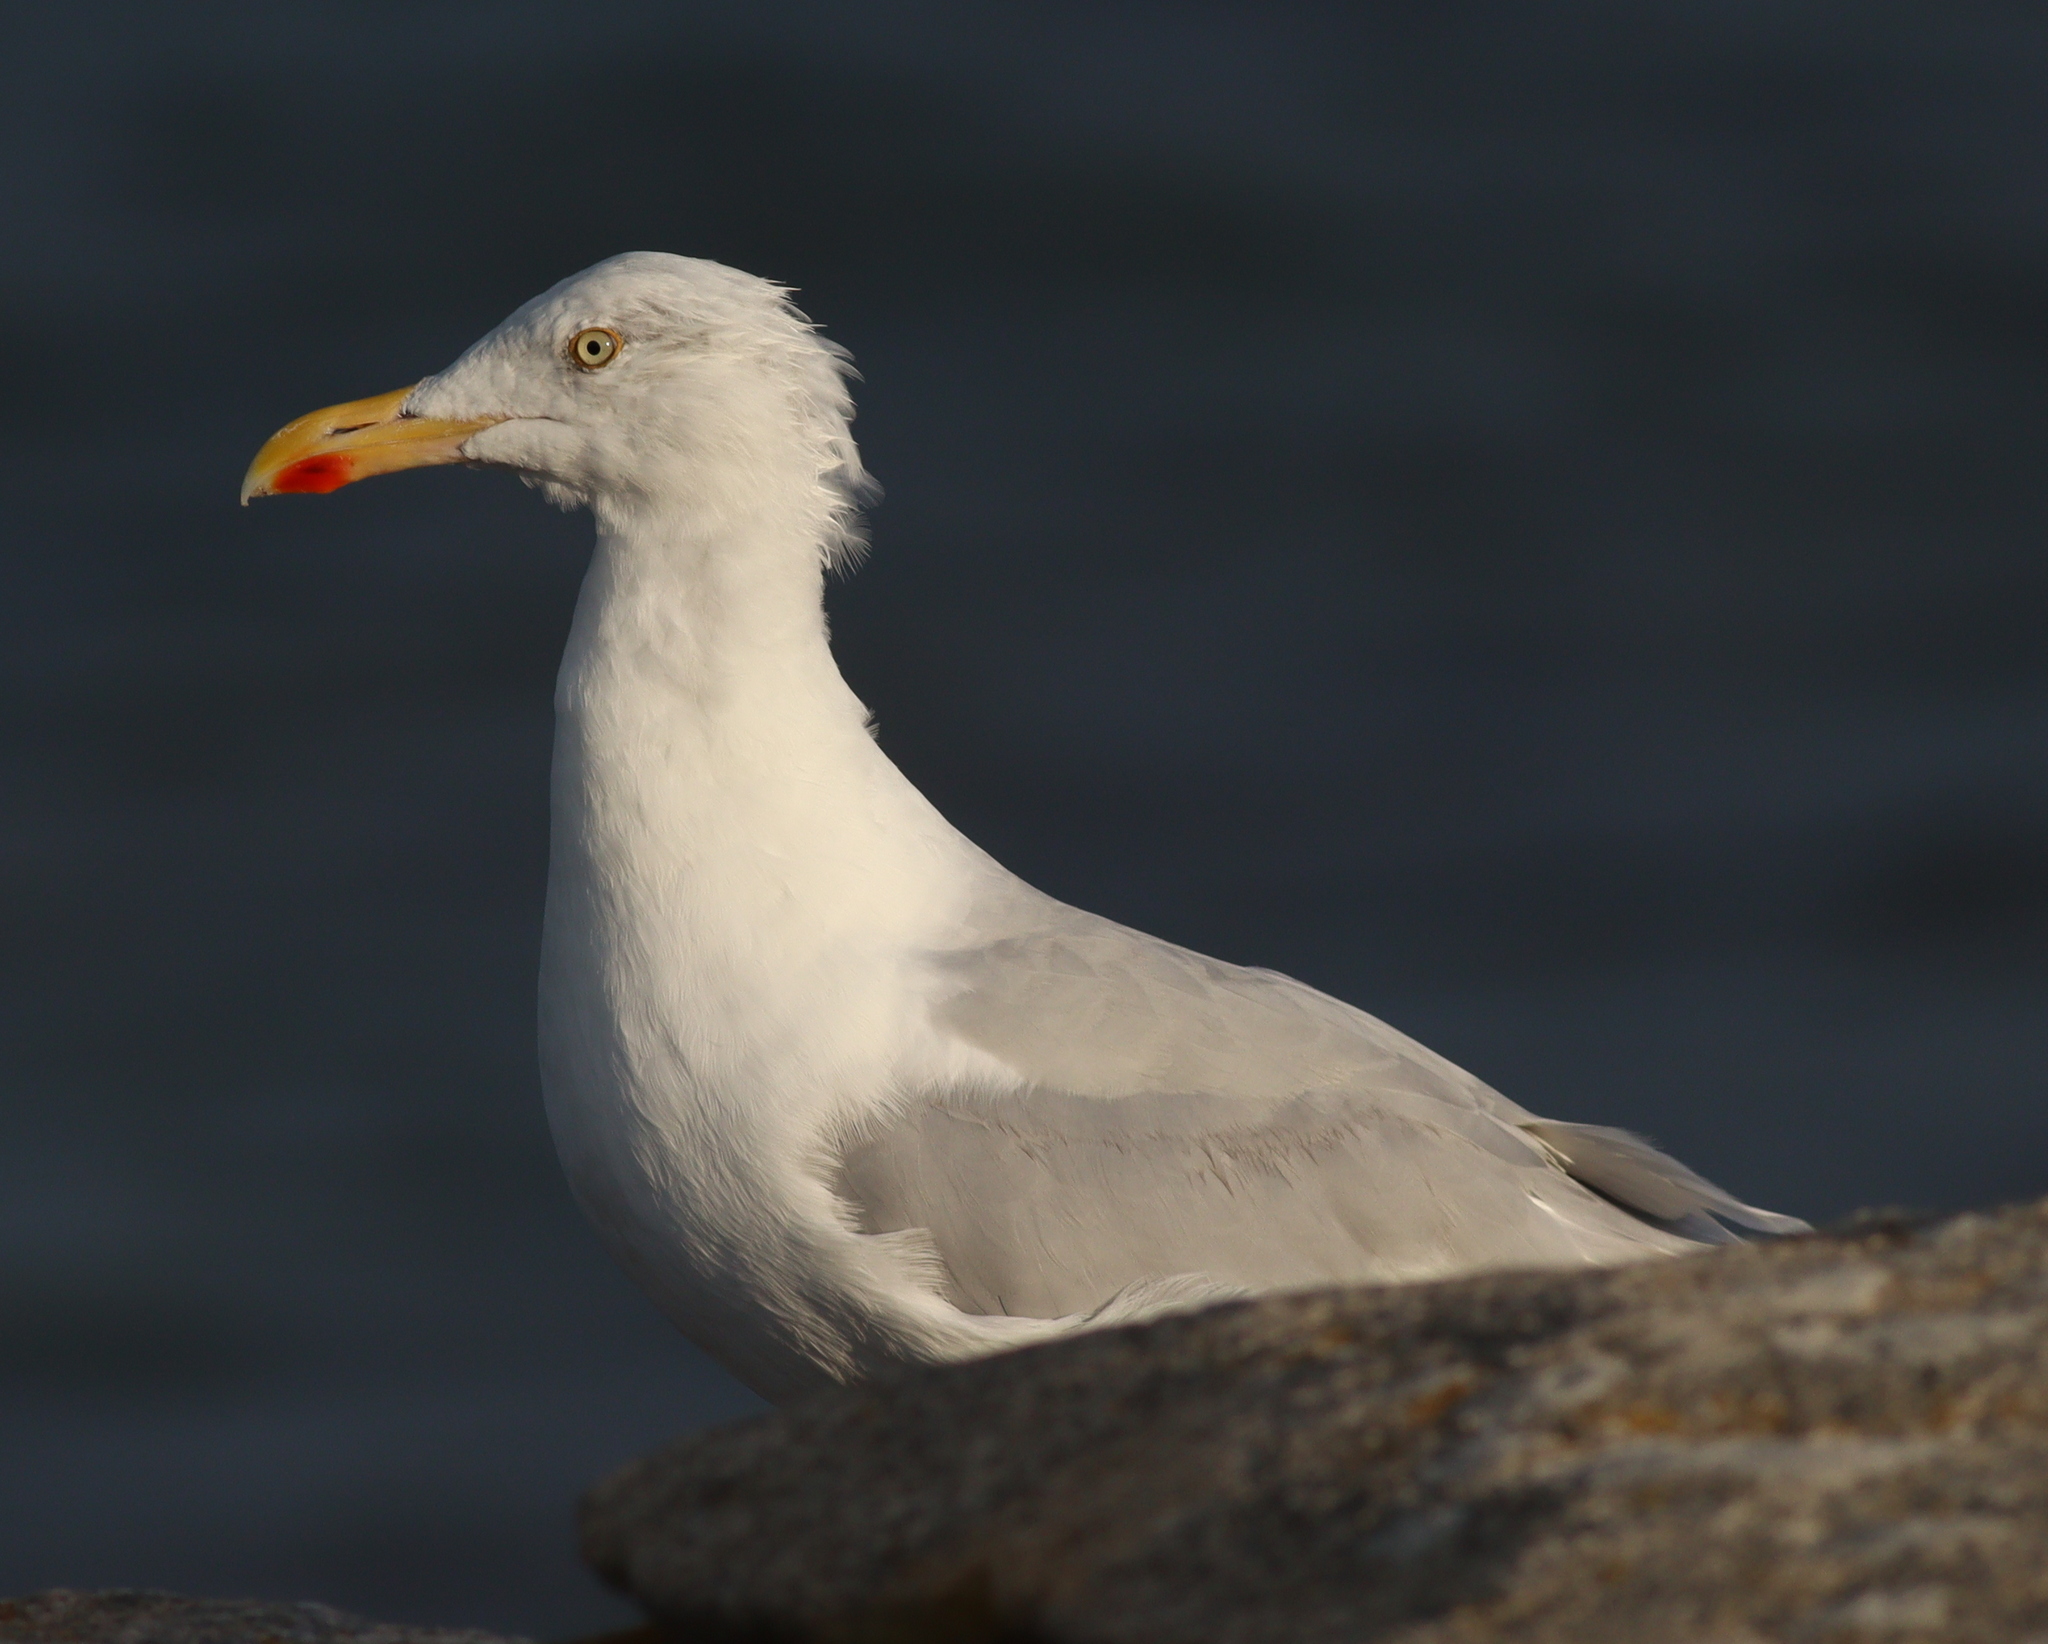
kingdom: Animalia
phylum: Chordata
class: Aves
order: Charadriiformes
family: Laridae
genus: Larus
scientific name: Larus argentatus
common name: Herring gull
